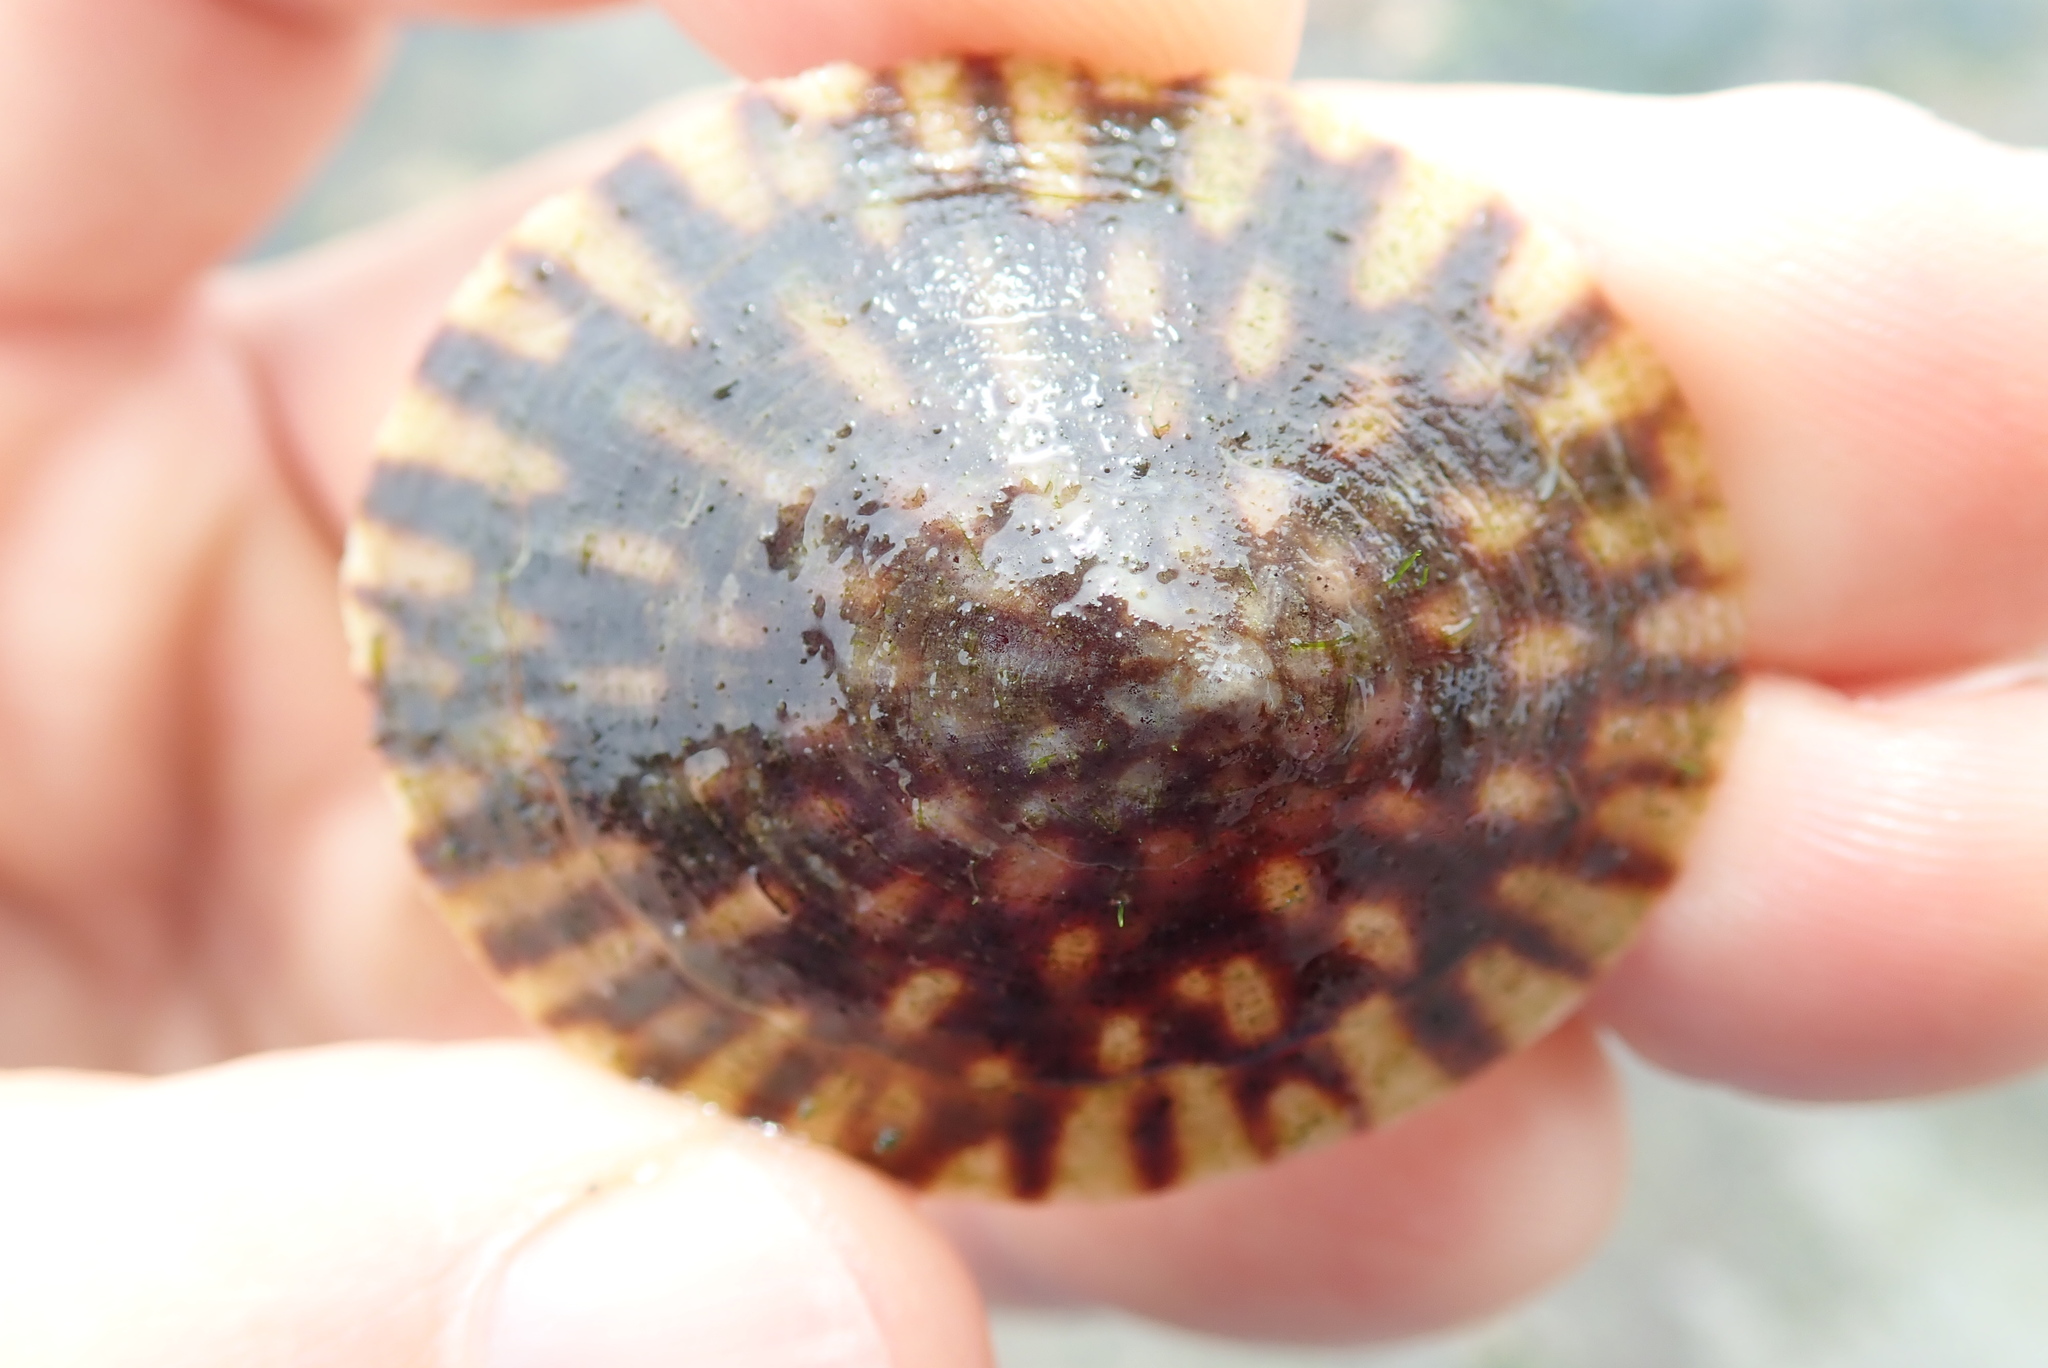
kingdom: Animalia
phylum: Mollusca
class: Gastropoda
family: Lottiidae
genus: Lottia
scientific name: Lottia scutum
